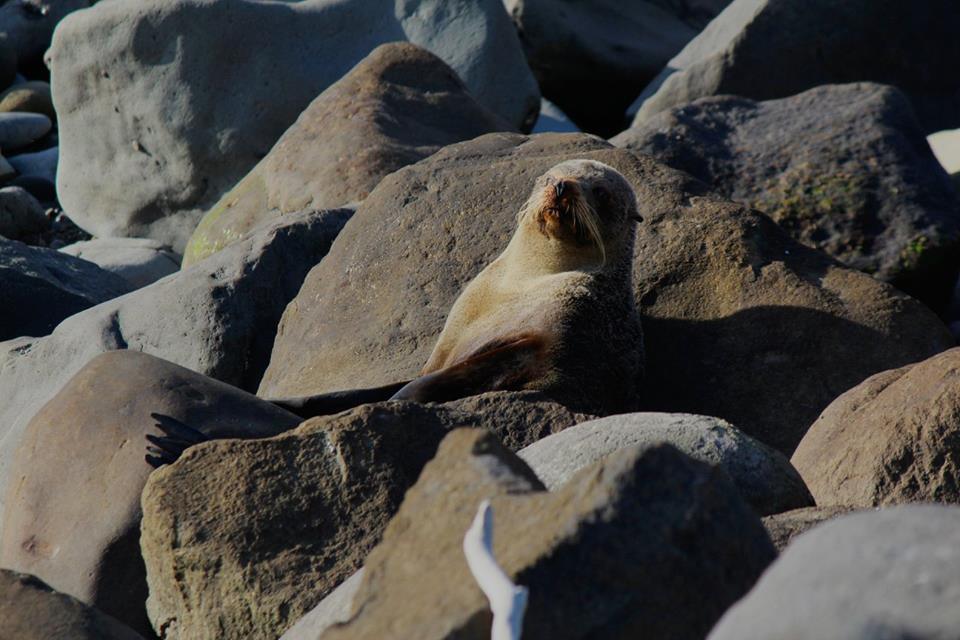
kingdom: Animalia
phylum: Chordata
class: Mammalia
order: Carnivora
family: Otariidae
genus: Arctocephalus
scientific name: Arctocephalus forsteri
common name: New zealand fur seal
